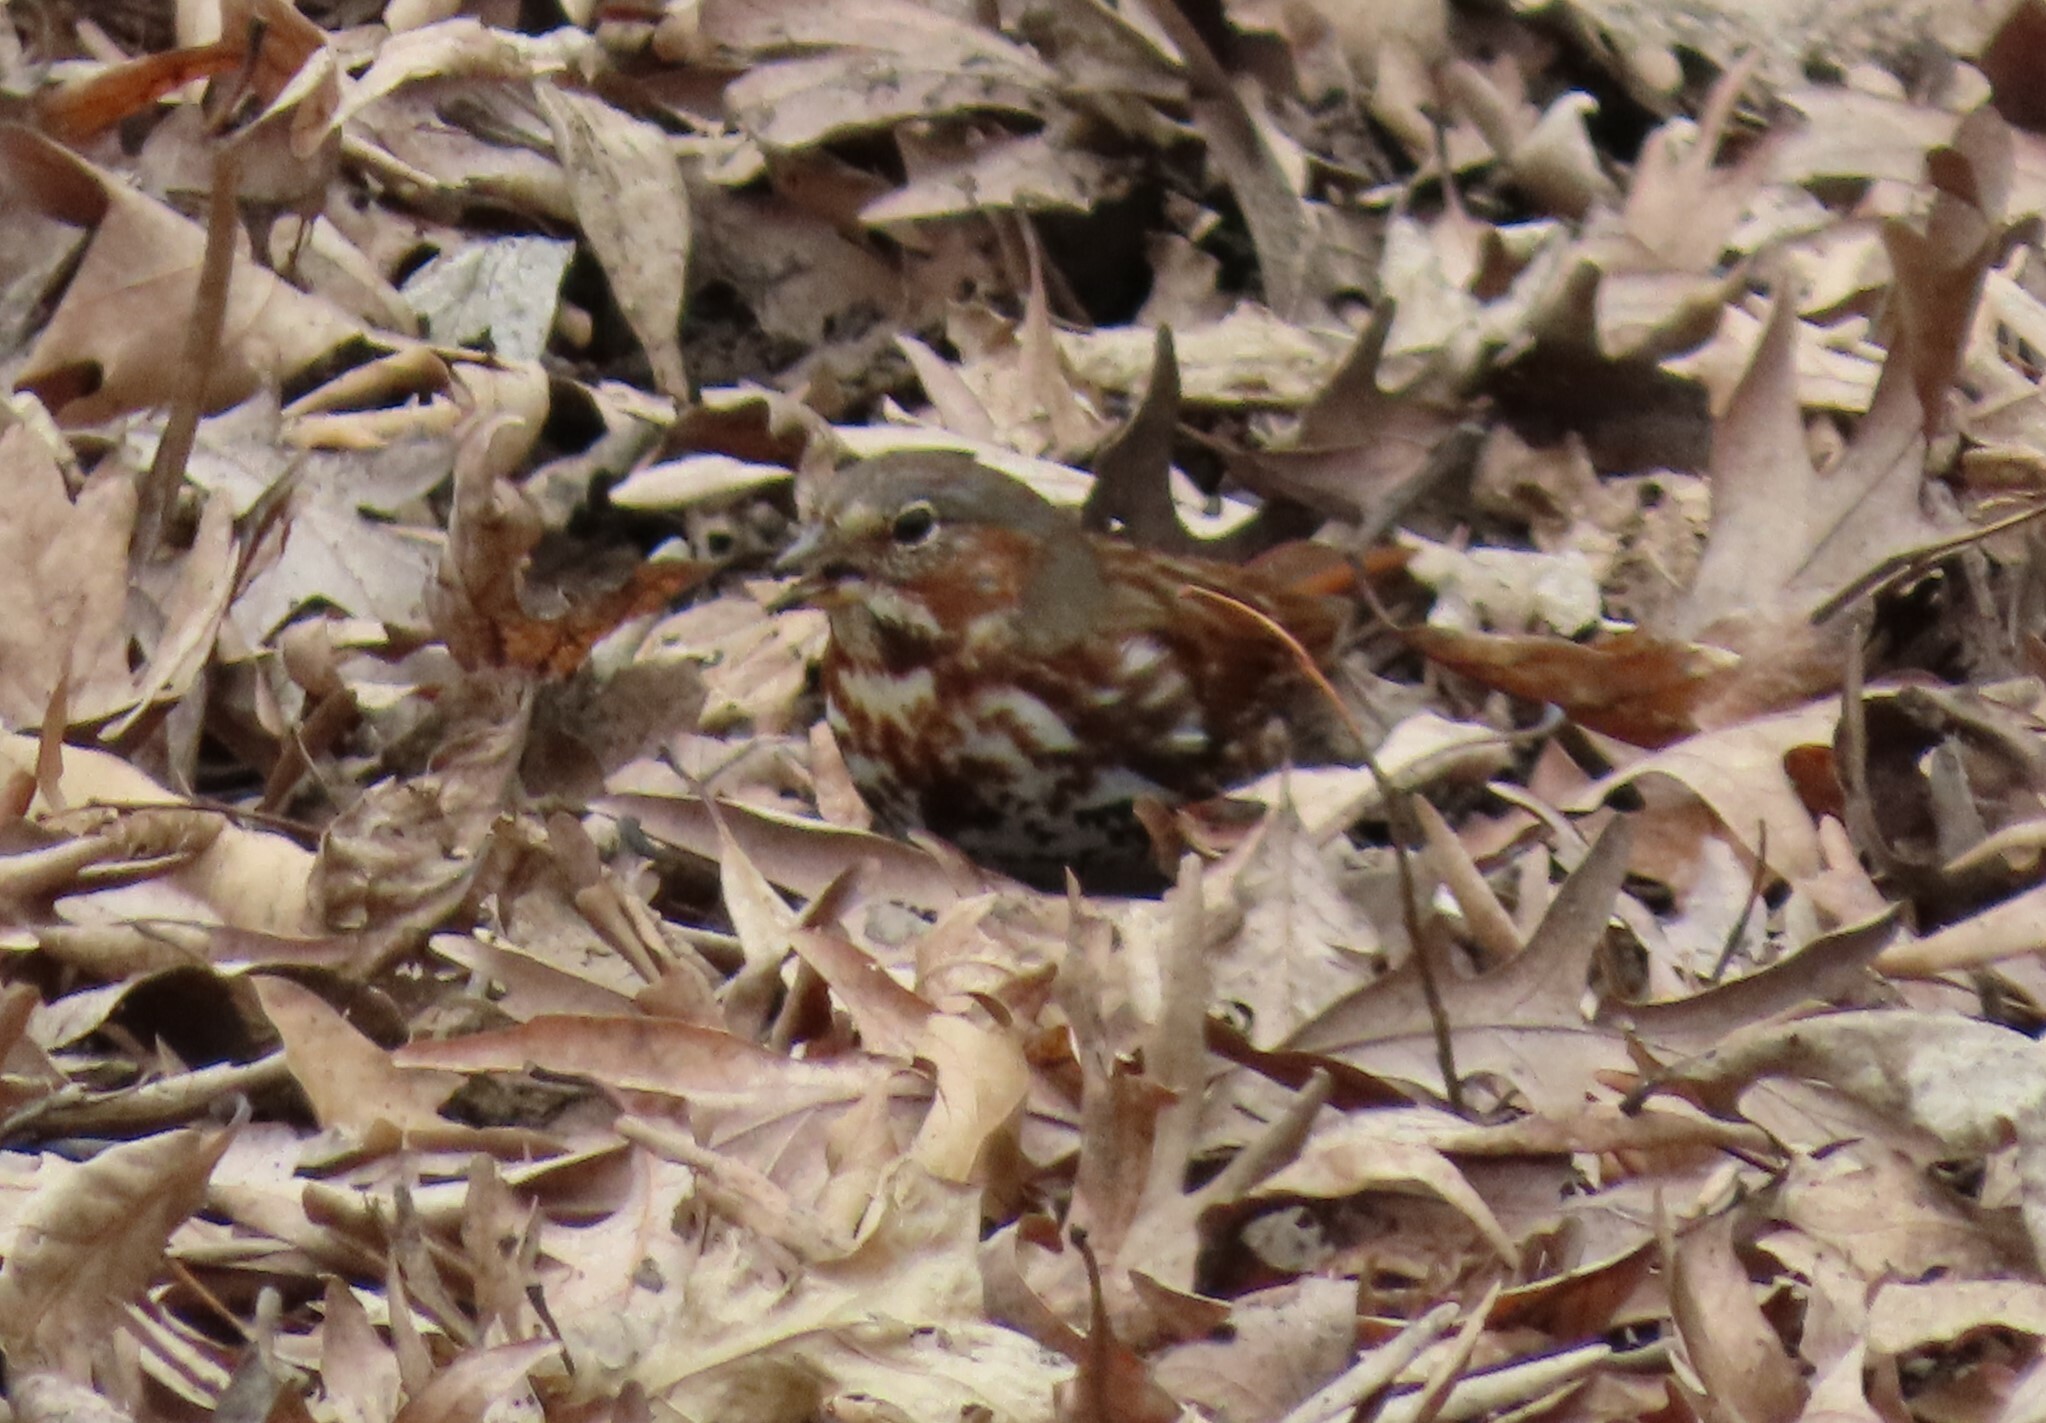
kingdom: Animalia
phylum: Chordata
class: Aves
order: Passeriformes
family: Passerellidae
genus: Passerella
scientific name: Passerella iliaca
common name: Fox sparrow
